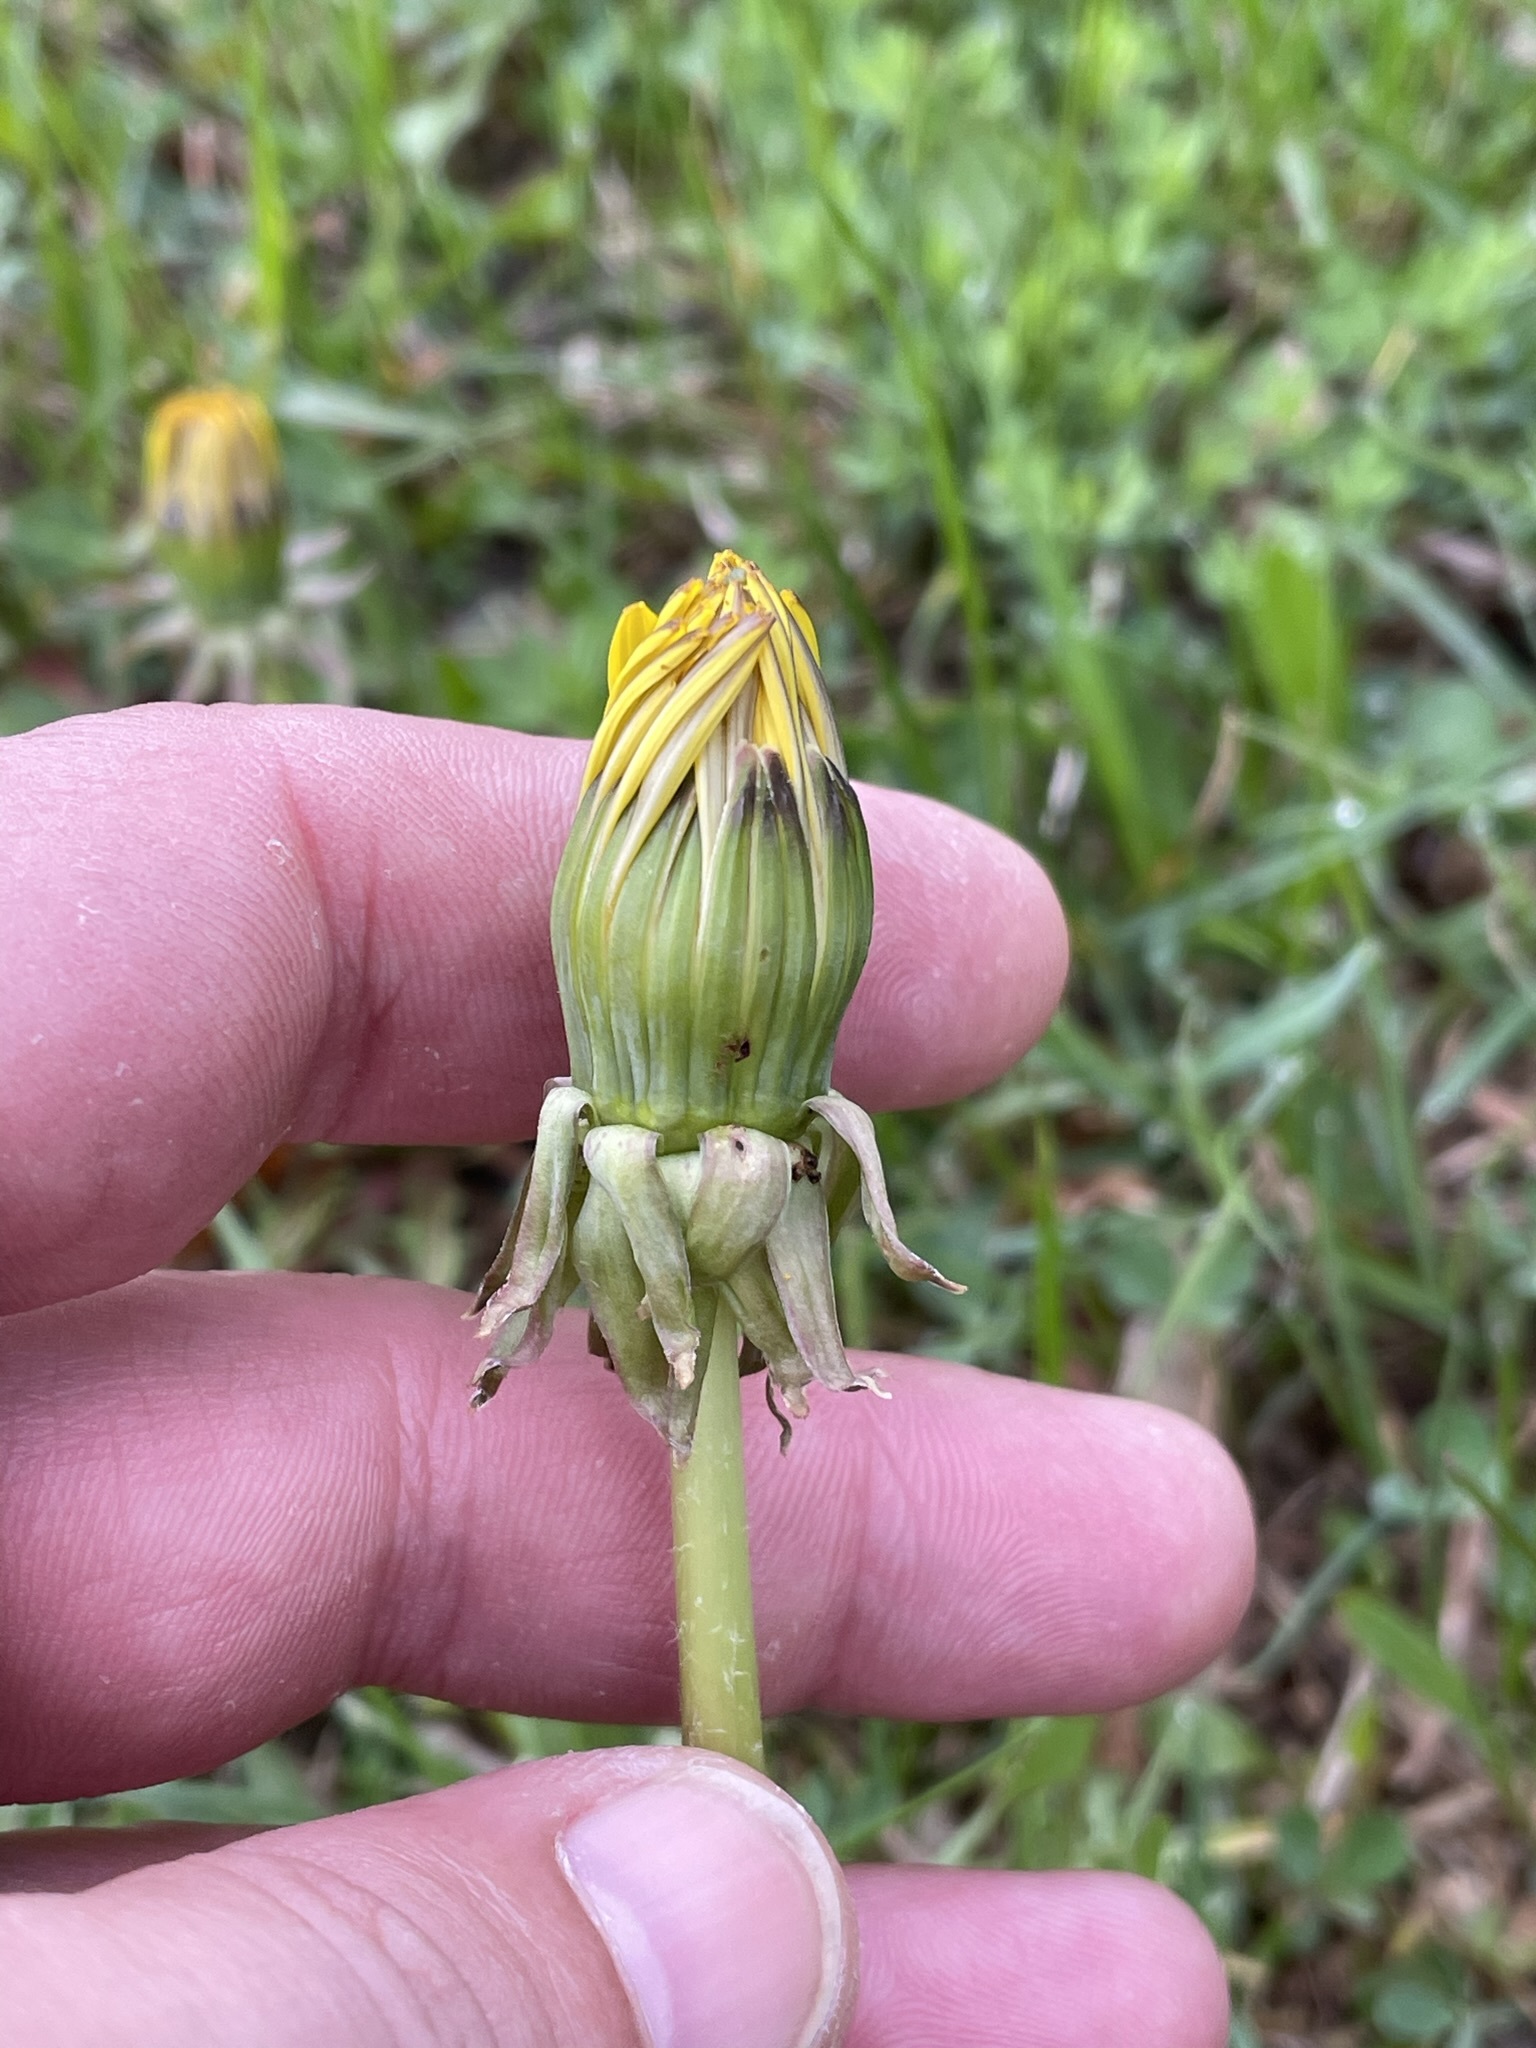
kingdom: Plantae
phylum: Tracheophyta
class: Magnoliopsida
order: Asterales
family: Asteraceae
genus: Taraxacum
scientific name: Taraxacum officinale
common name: Common dandelion
